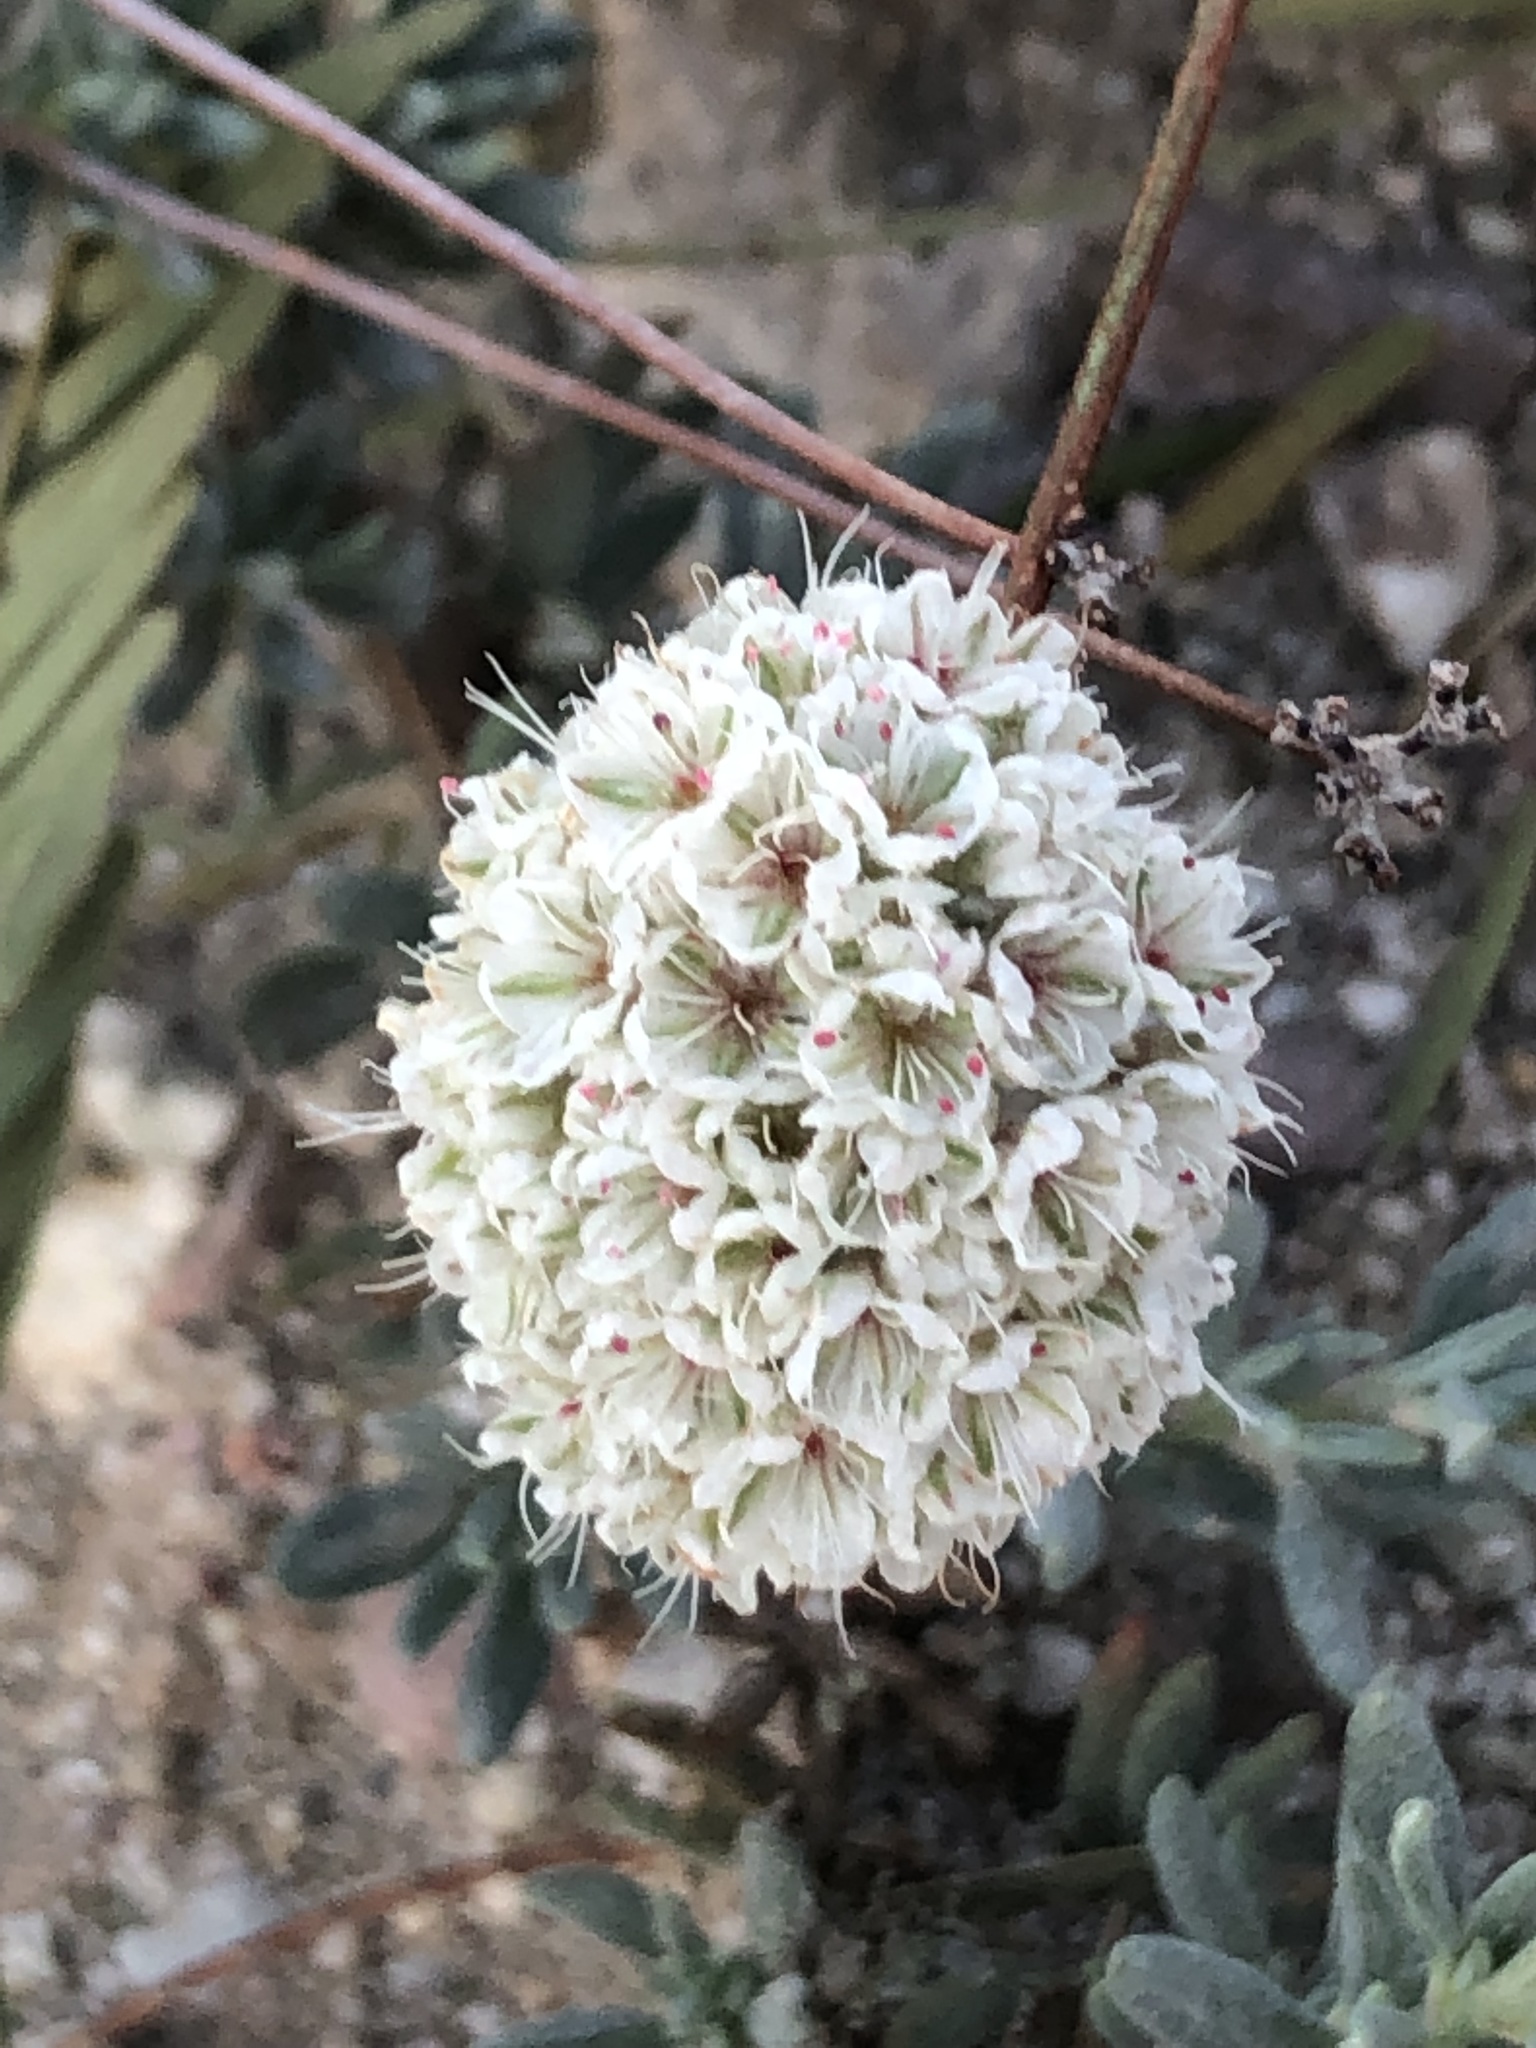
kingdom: Plantae
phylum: Tracheophyta
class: Magnoliopsida
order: Caryophyllales
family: Polygonaceae
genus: Eriogonum
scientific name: Eriogonum fasciculatum
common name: California wild buckwheat
